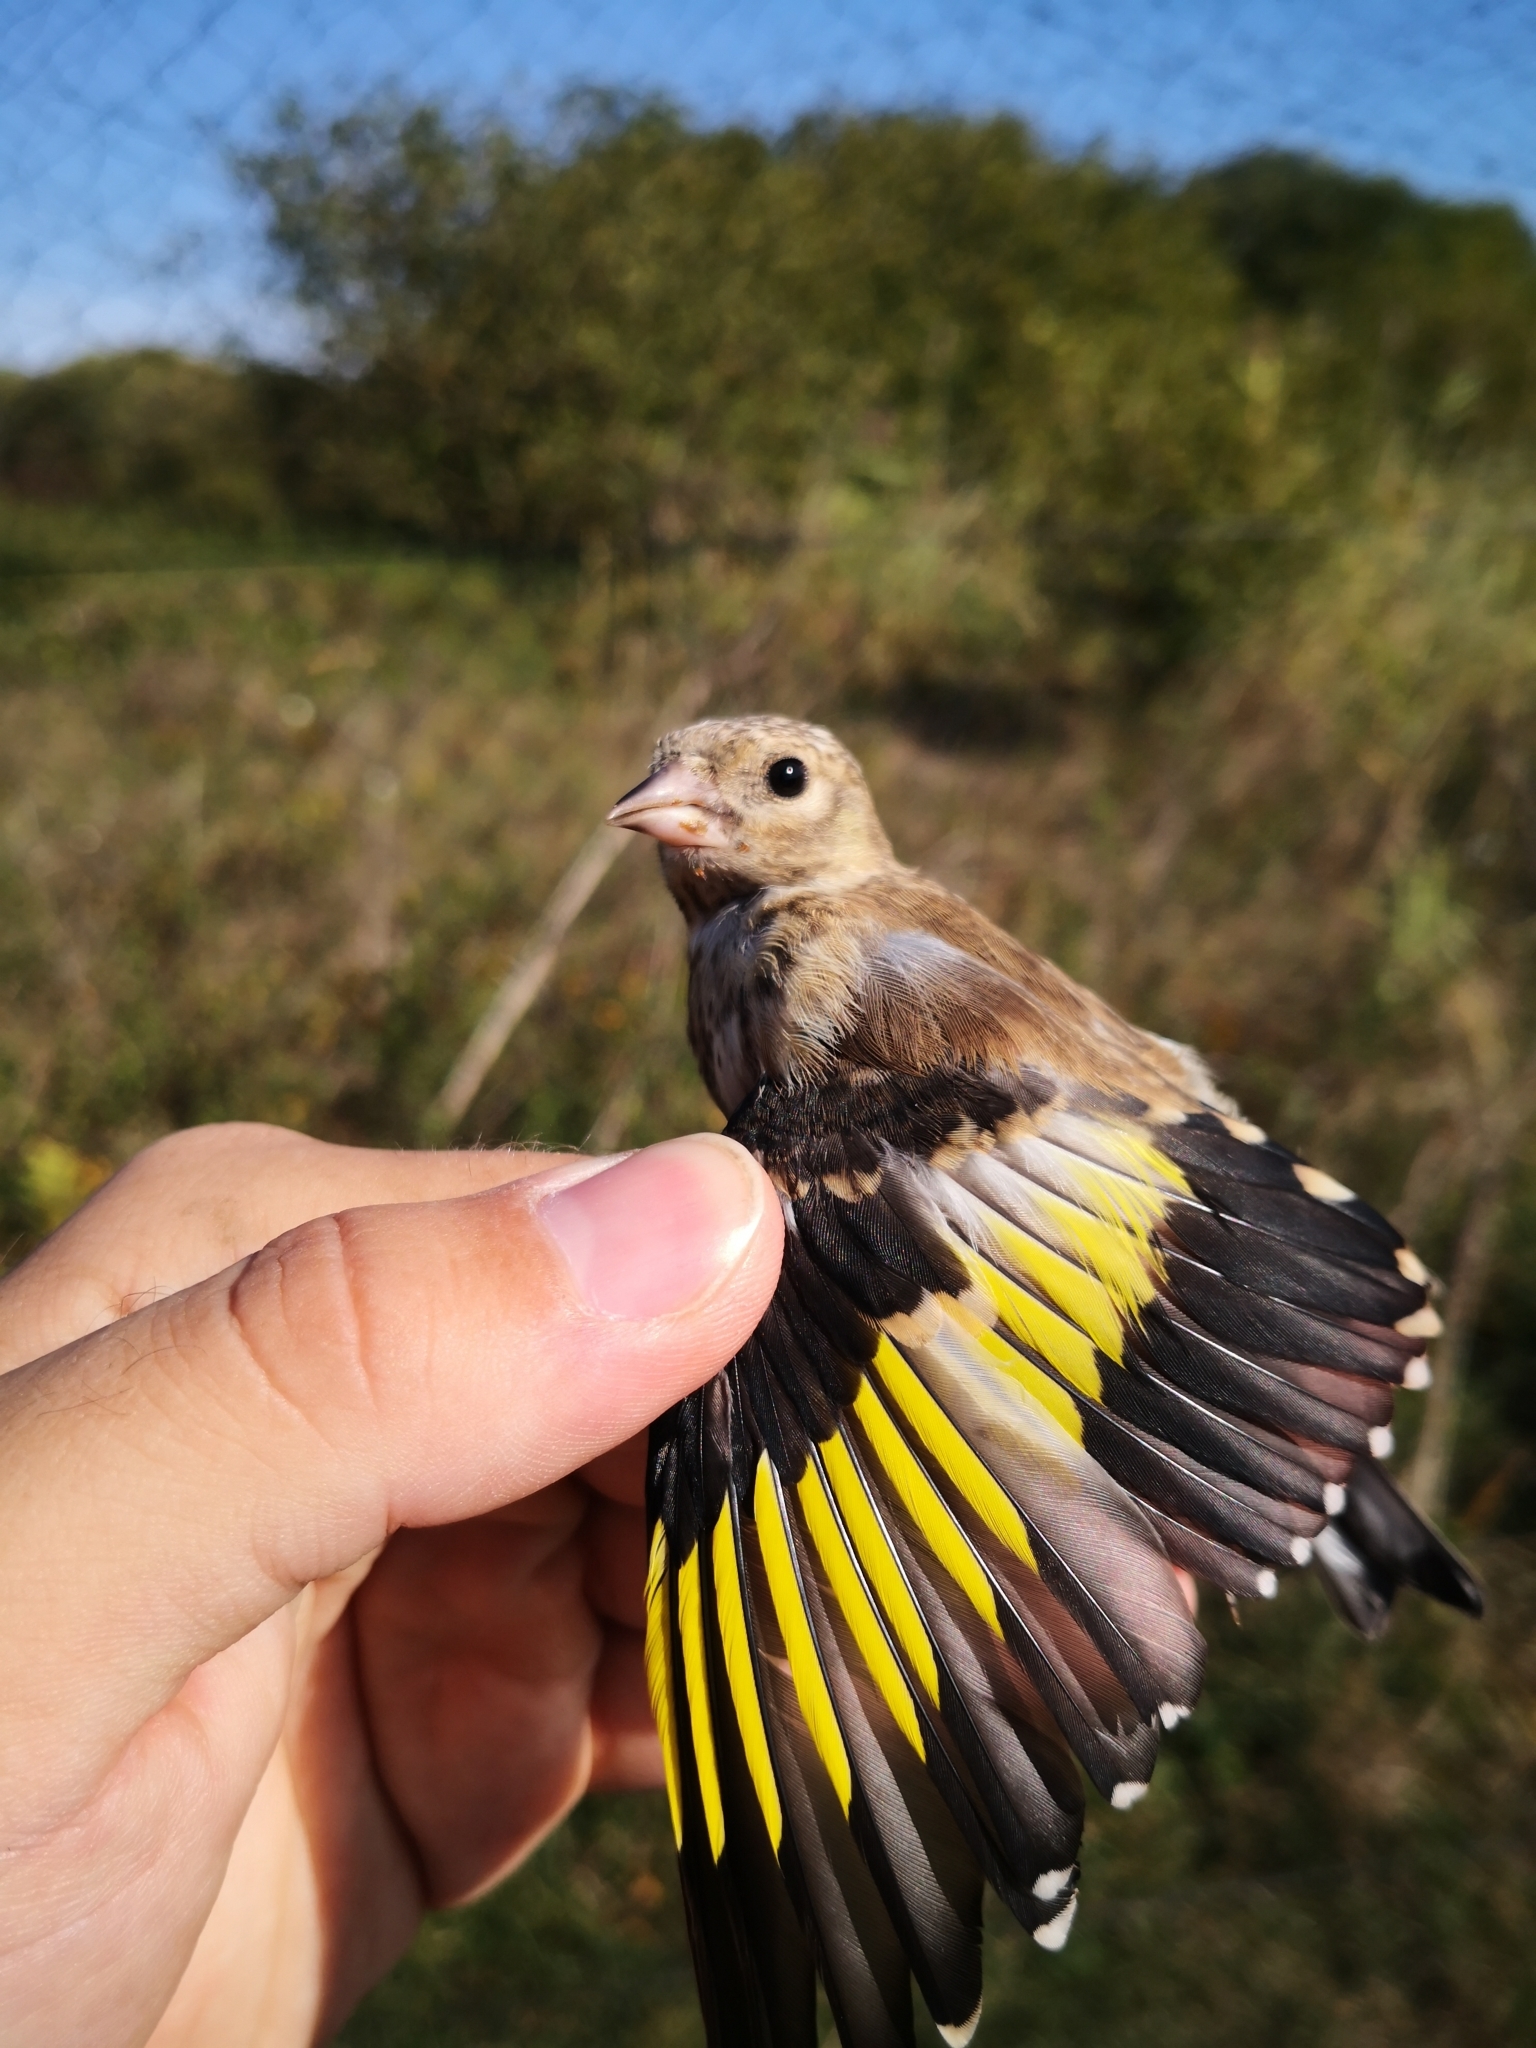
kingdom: Animalia
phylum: Chordata
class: Aves
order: Passeriformes
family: Fringillidae
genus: Carduelis
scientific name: Carduelis carduelis
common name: European goldfinch
